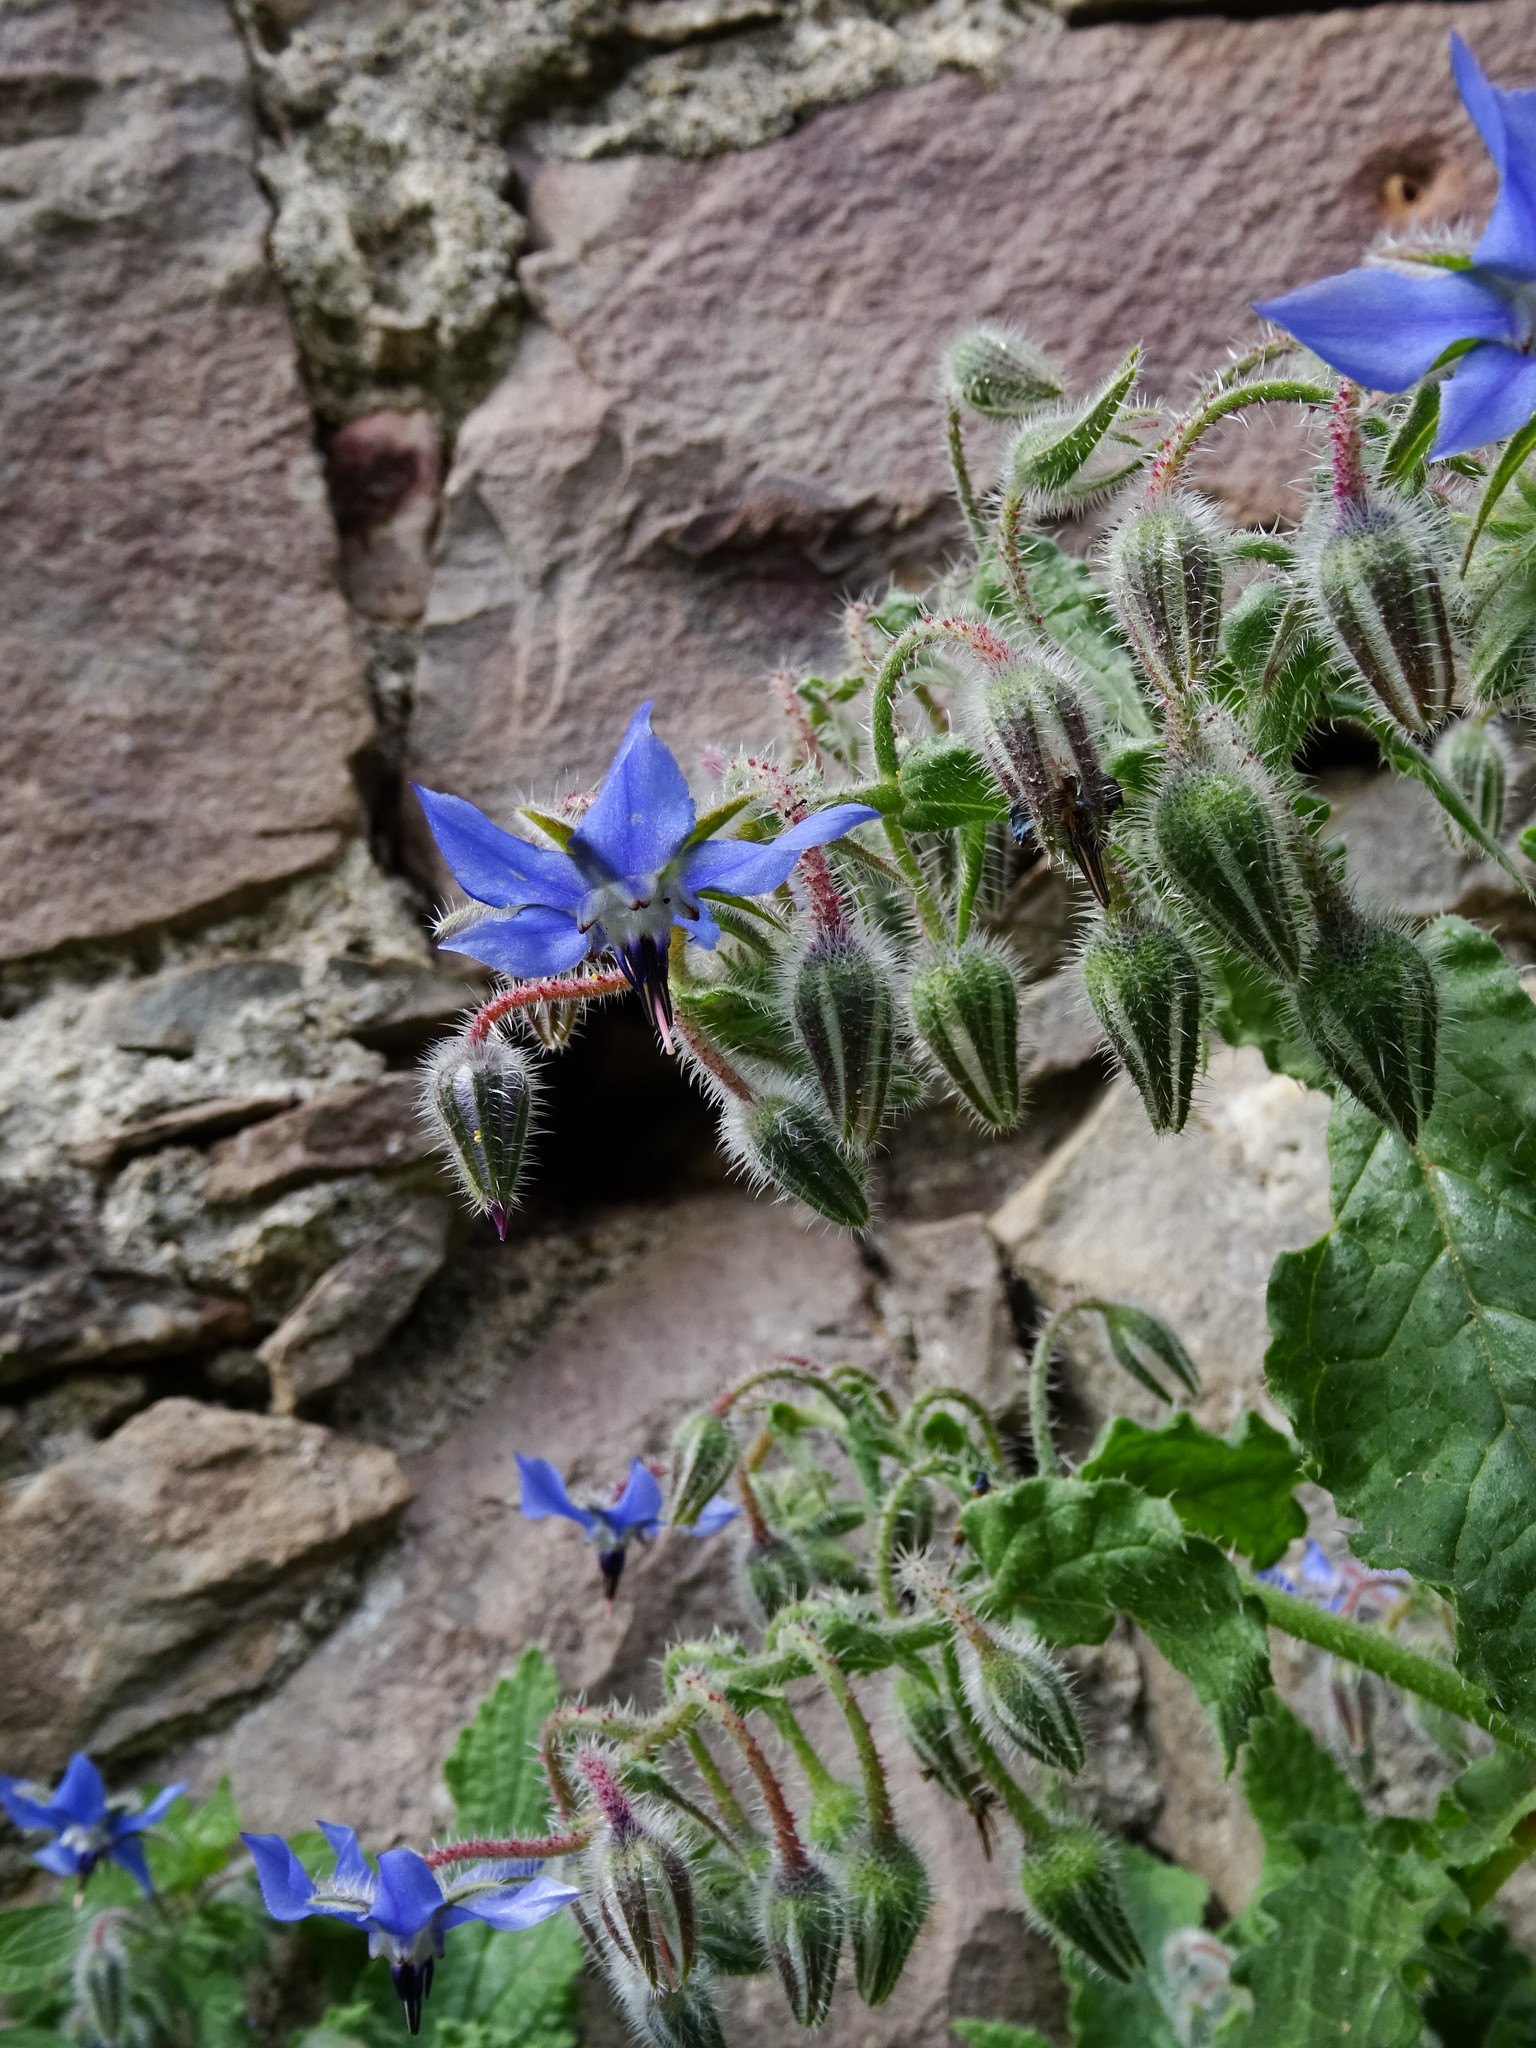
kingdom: Plantae
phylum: Tracheophyta
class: Magnoliopsida
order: Boraginales
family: Boraginaceae
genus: Borago
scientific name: Borago officinalis
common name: Borage
